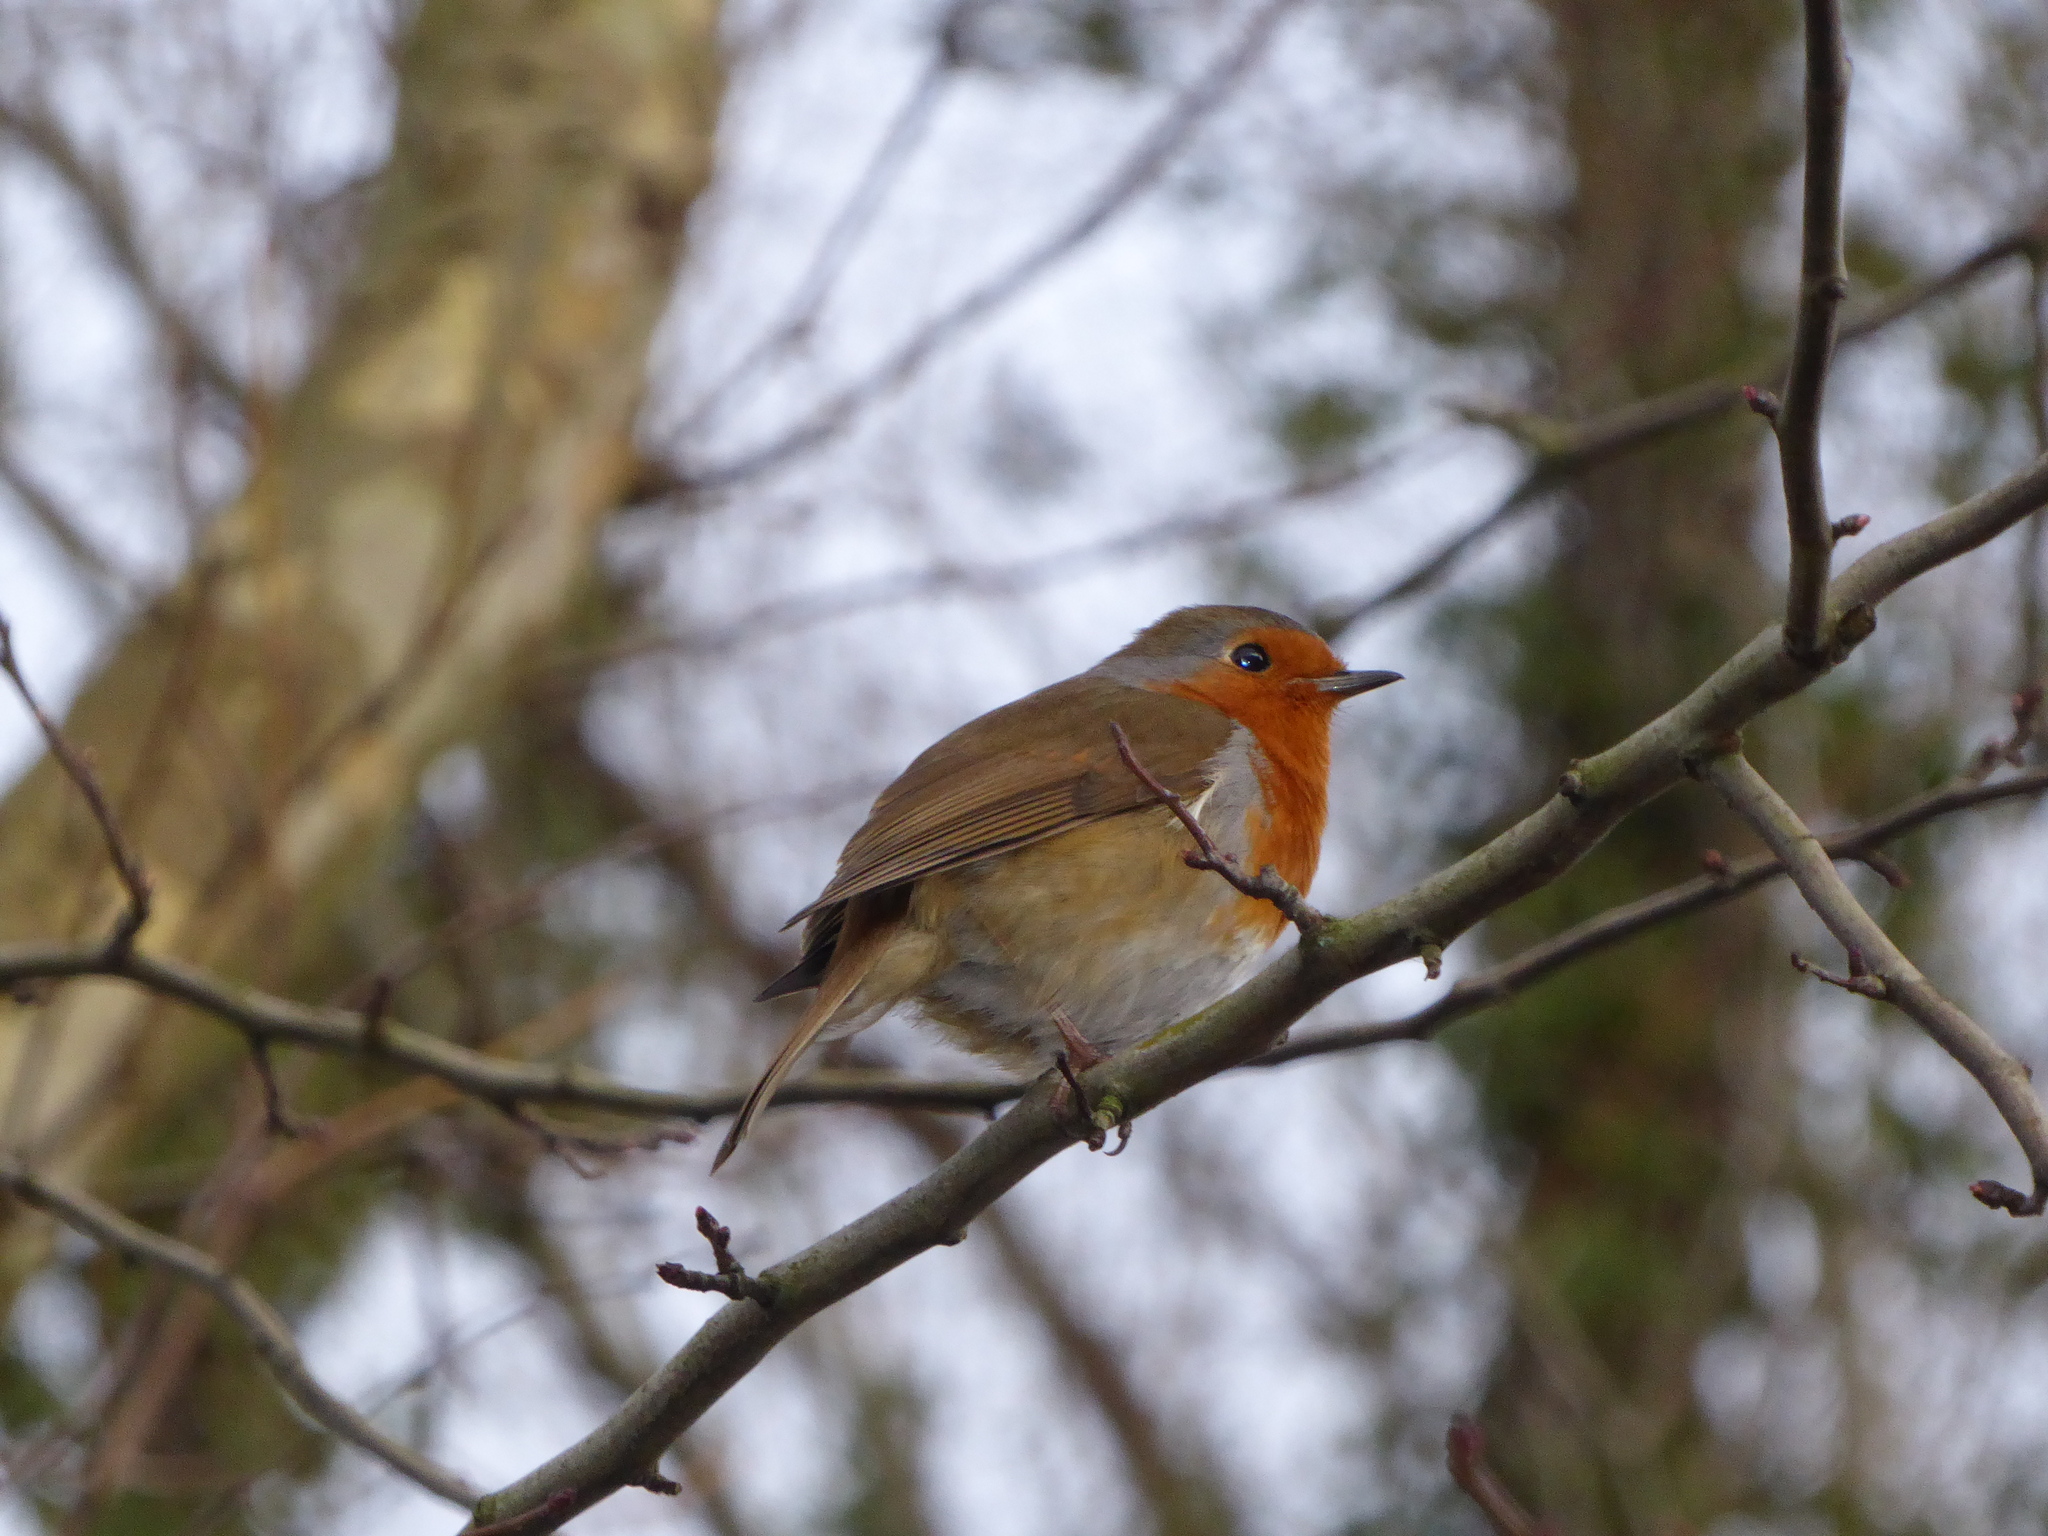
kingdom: Animalia
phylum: Chordata
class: Aves
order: Passeriformes
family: Muscicapidae
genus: Erithacus
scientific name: Erithacus rubecula
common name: European robin
